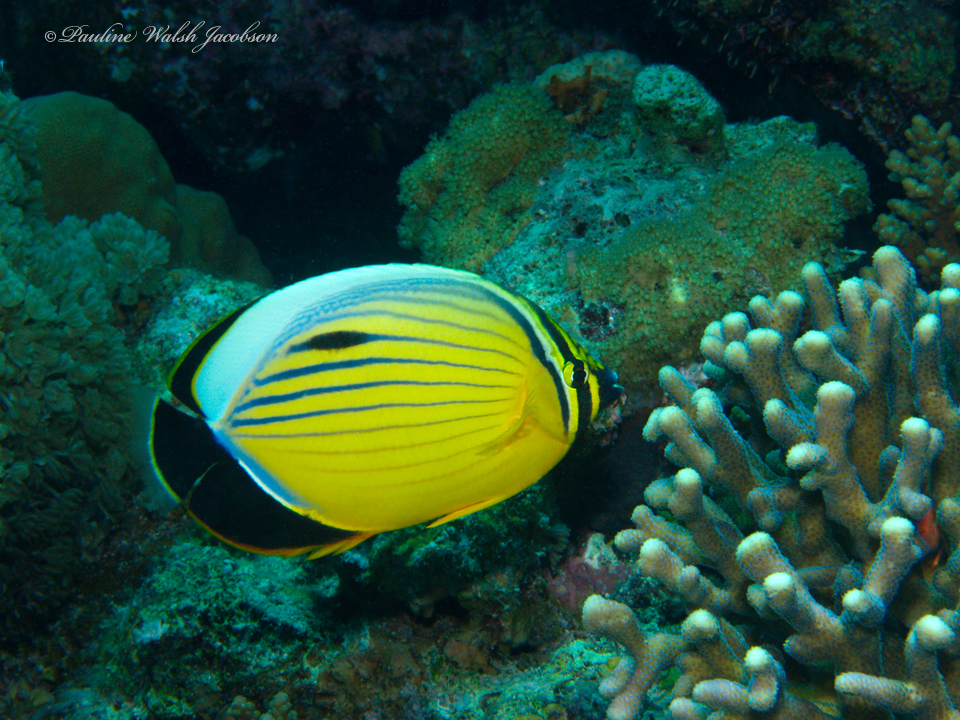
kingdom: Animalia
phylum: Chordata
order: Perciformes
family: Chaetodontidae
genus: Chaetodon
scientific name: Chaetodon austriacus
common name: Exquisite butterflyfish
